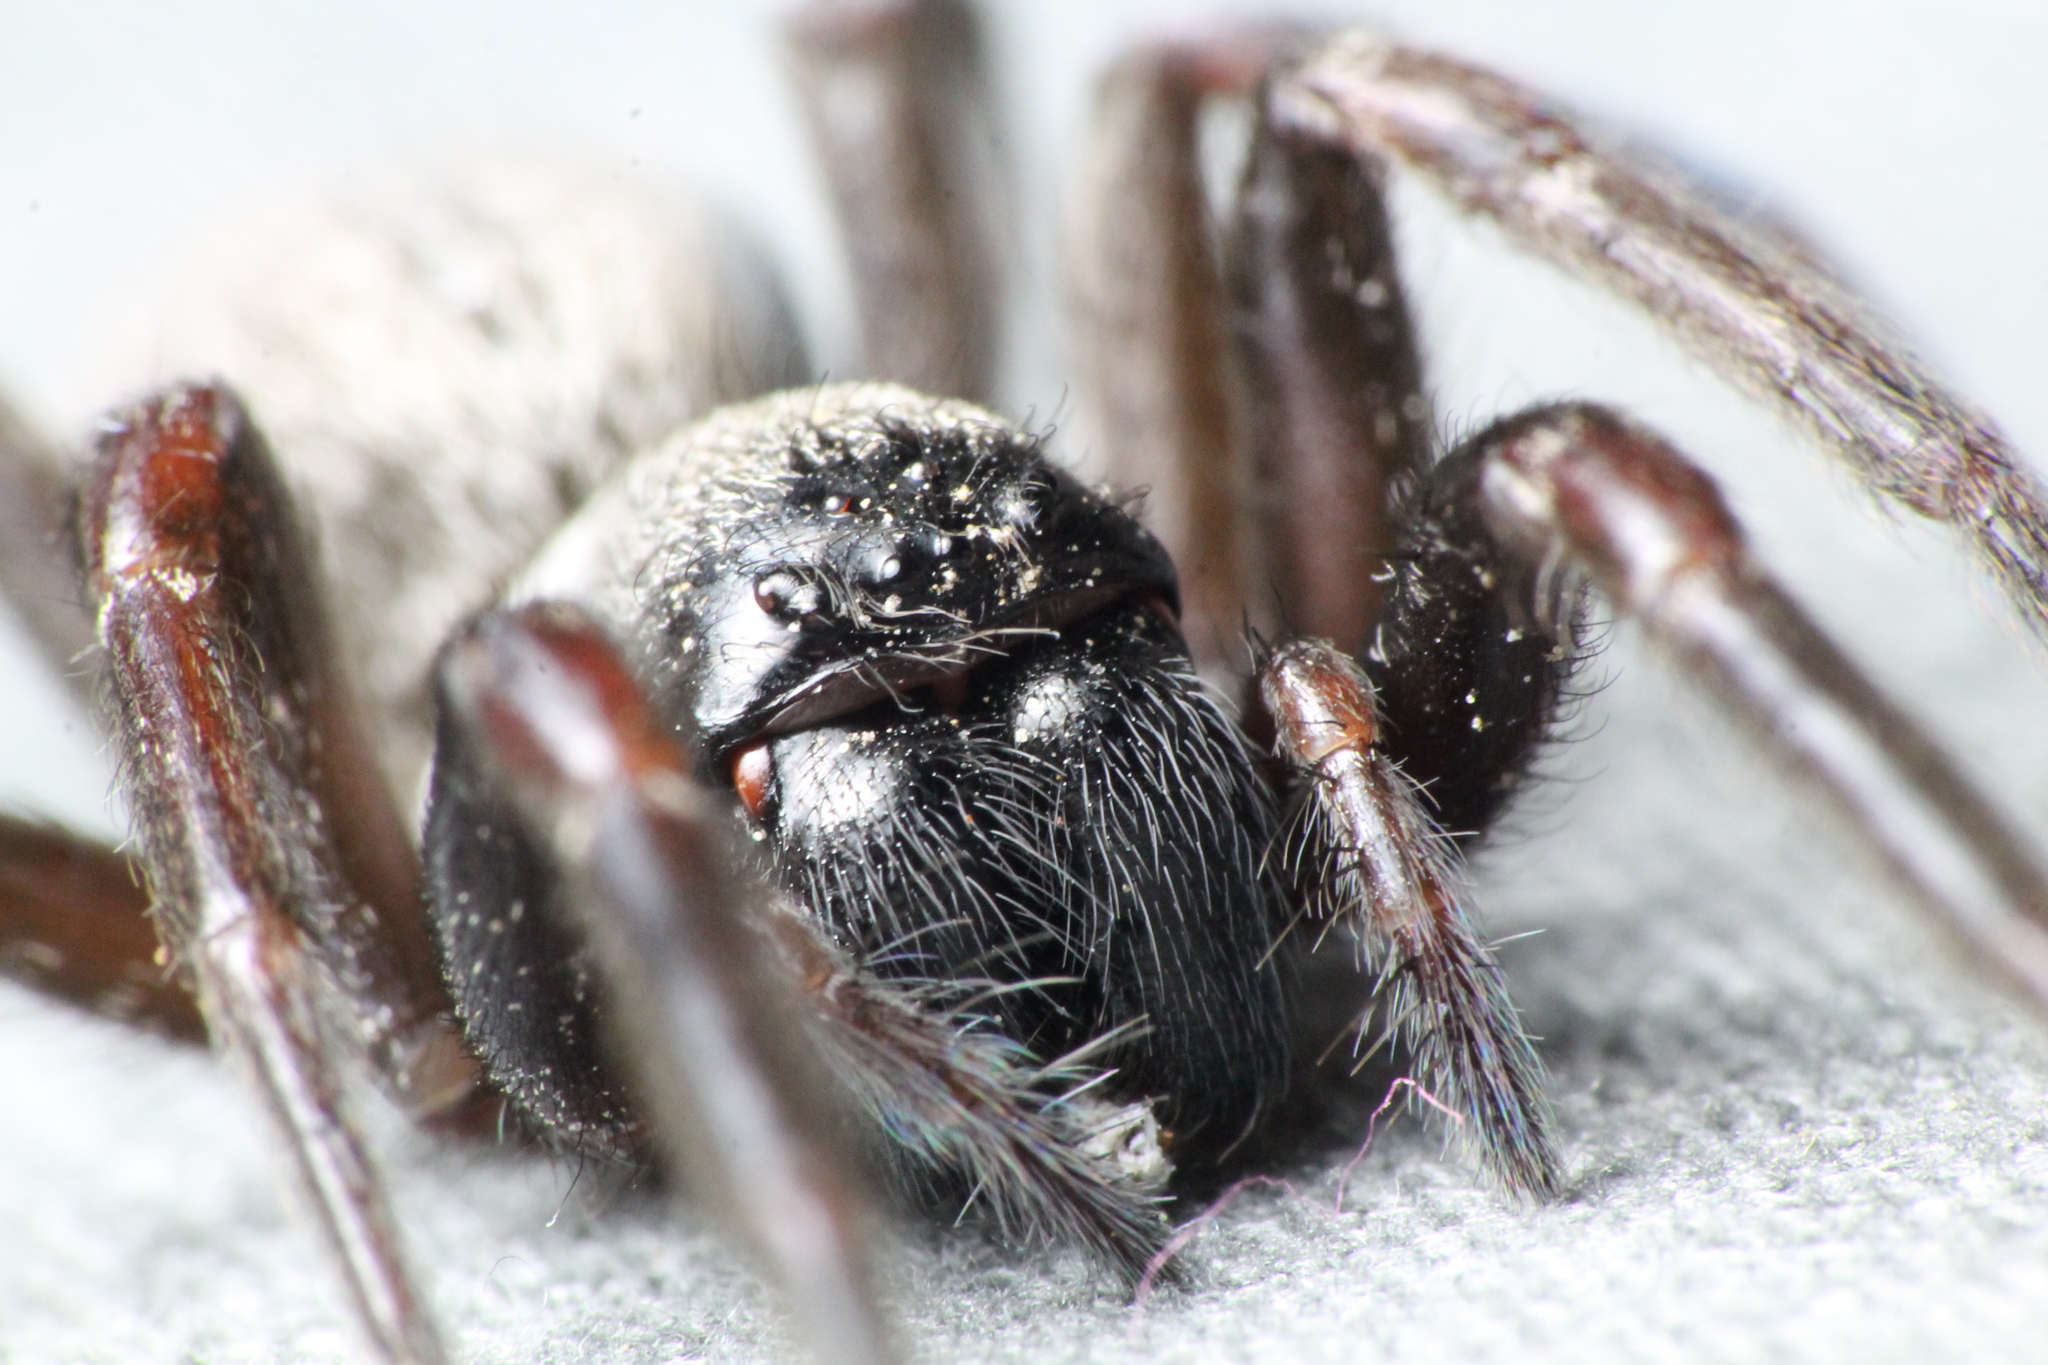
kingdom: Animalia
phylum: Arthropoda
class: Arachnida
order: Araneae
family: Desidae
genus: Badumna
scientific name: Badumna longinqua
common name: Gray house spider
